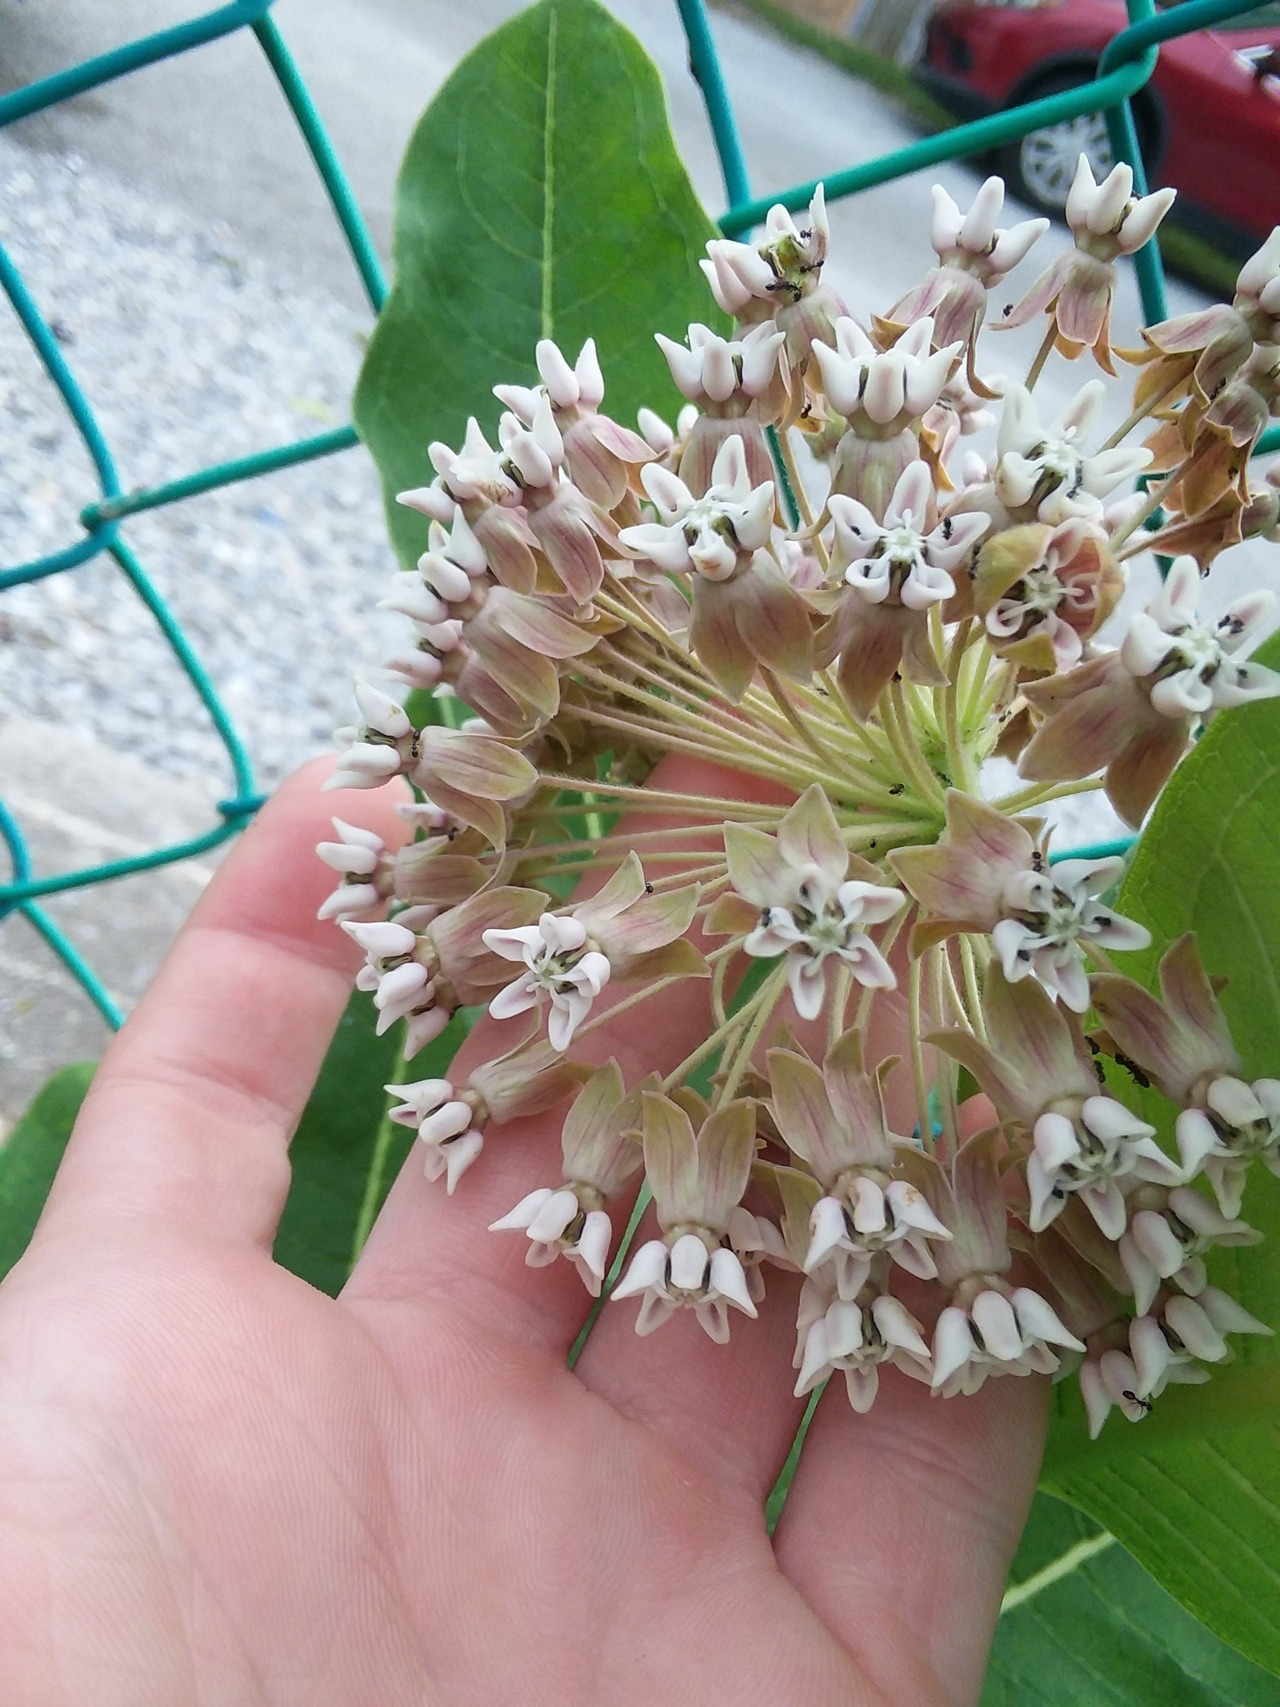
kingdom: Plantae
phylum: Tracheophyta
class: Magnoliopsida
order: Gentianales
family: Apocynaceae
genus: Asclepias
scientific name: Asclepias syriaca
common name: Common milkweed
